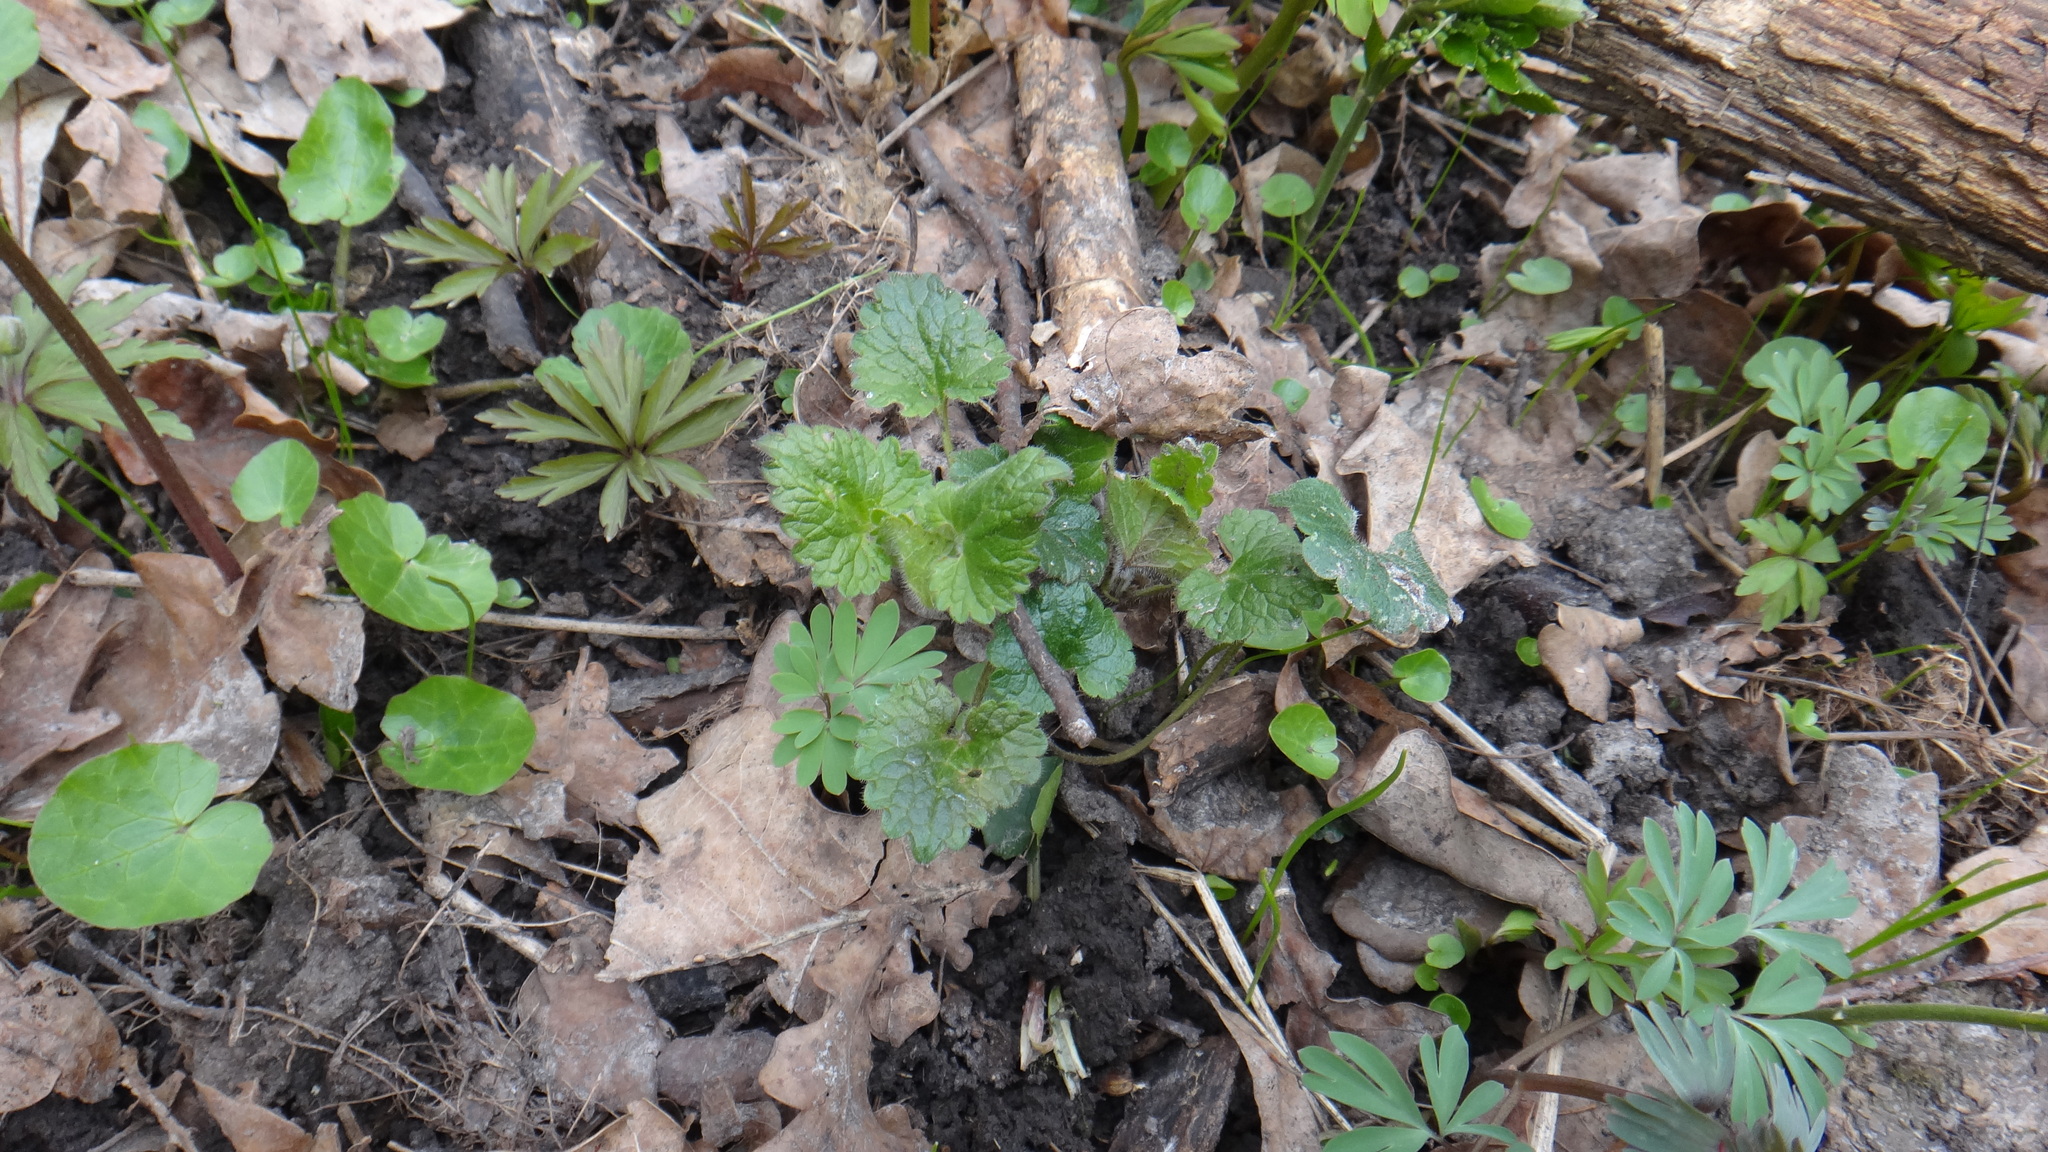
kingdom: Plantae
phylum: Tracheophyta
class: Magnoliopsida
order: Lamiales
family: Lamiaceae
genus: Glechoma
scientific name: Glechoma hirsuta
